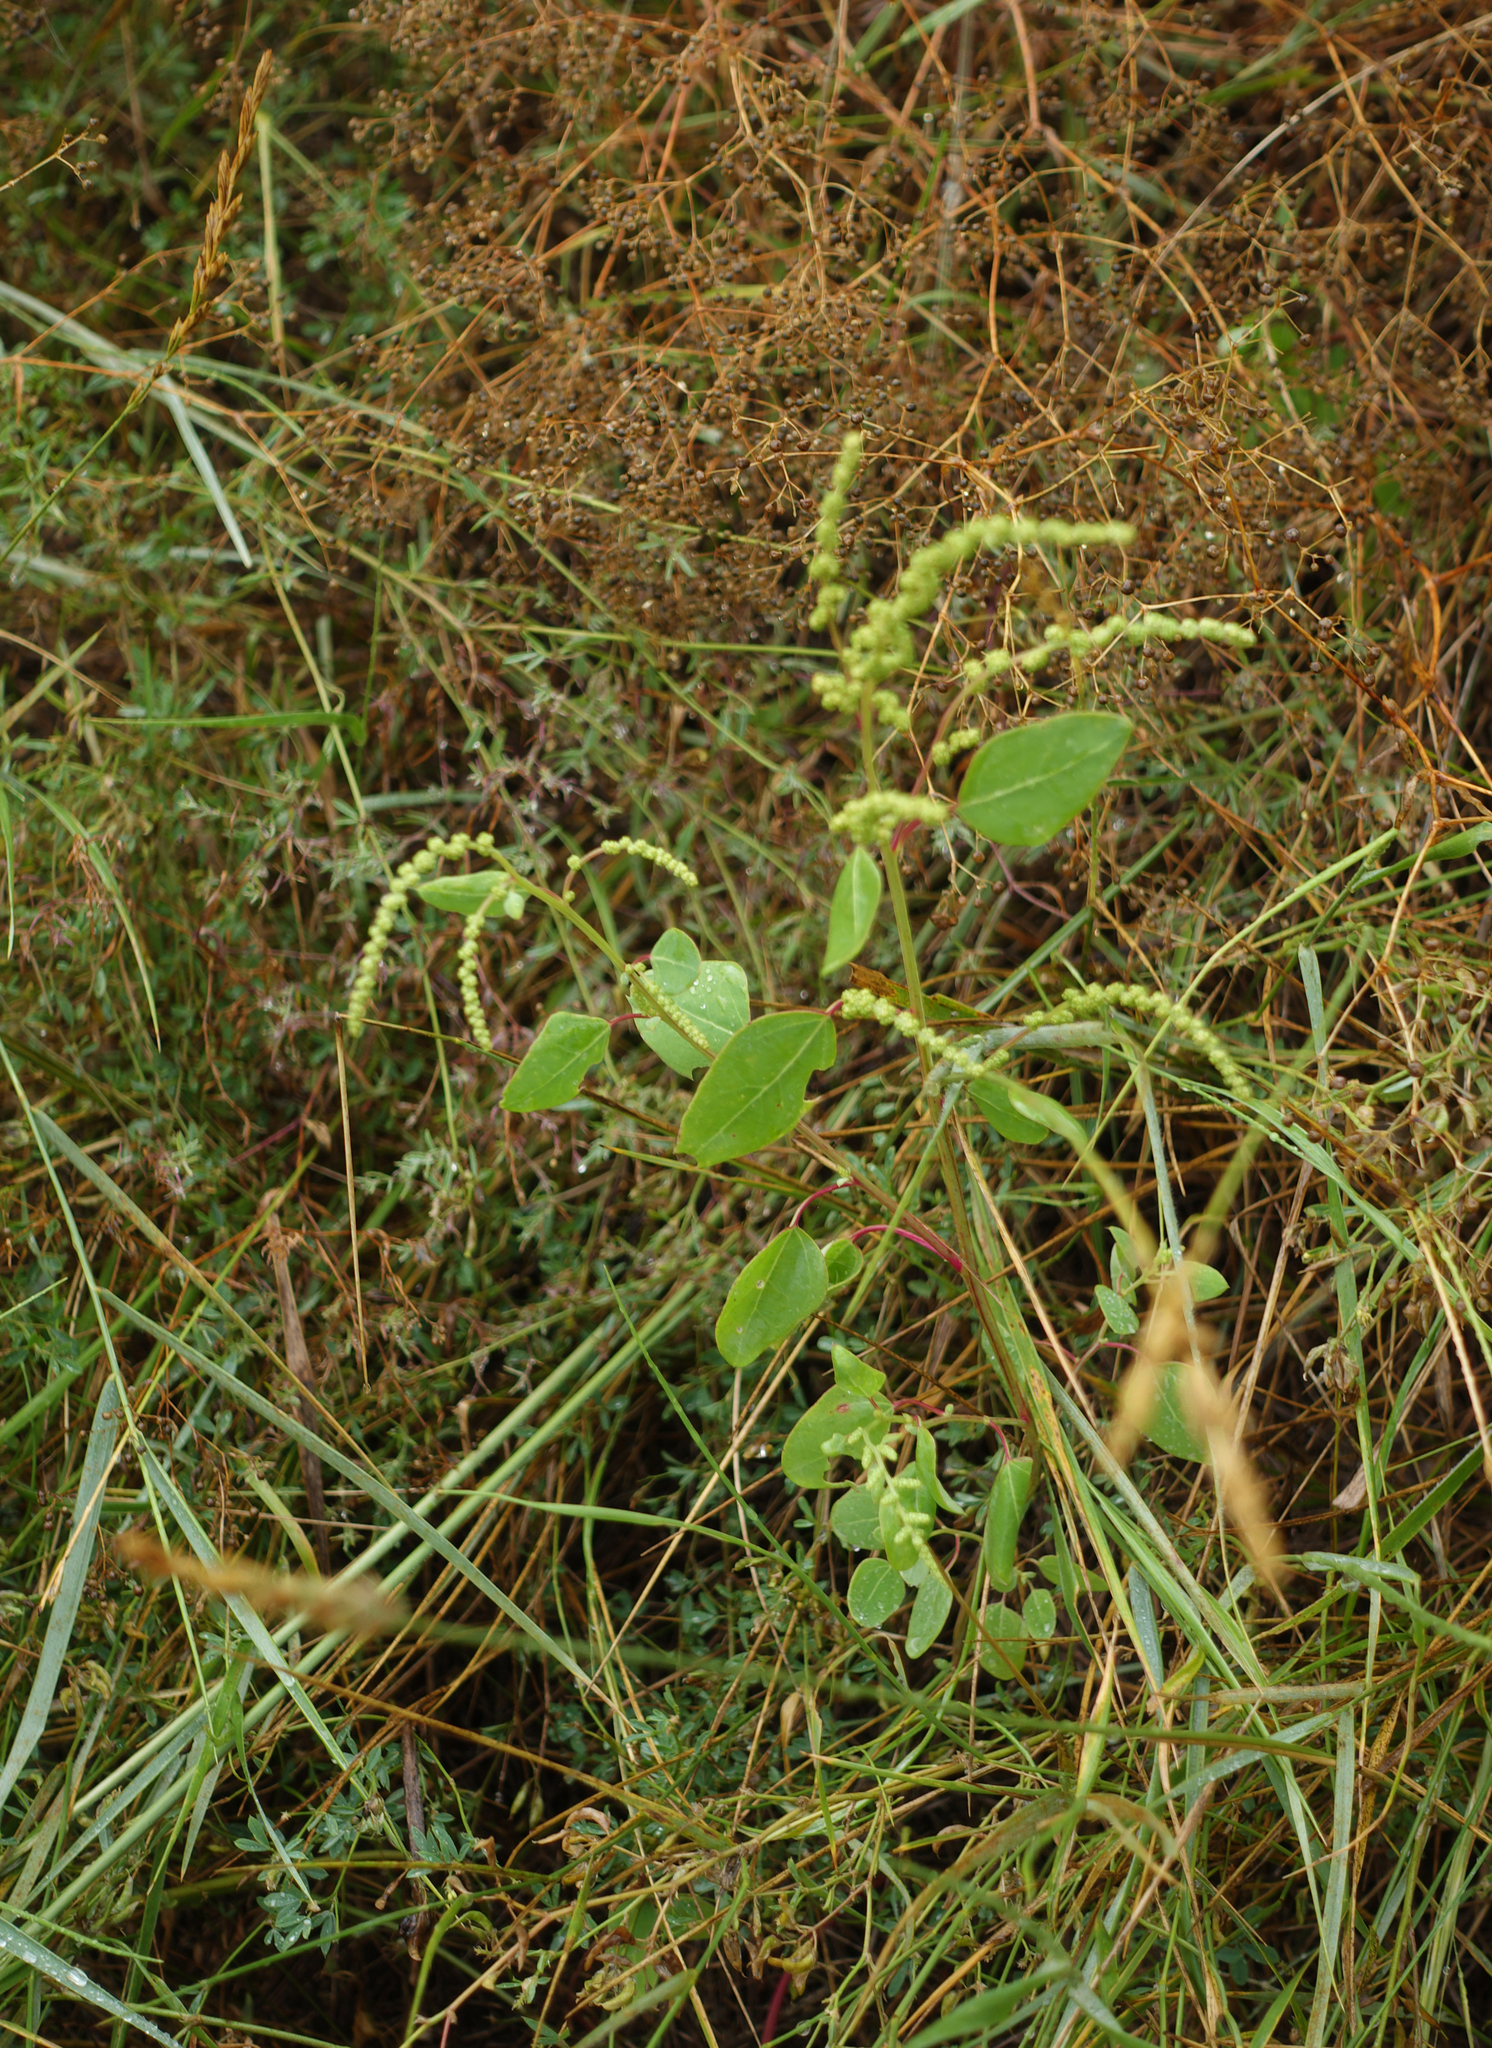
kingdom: Plantae
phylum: Tracheophyta
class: Magnoliopsida
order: Caryophyllales
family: Amaranthaceae
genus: Chenopodium
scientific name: Chenopodium acuminatum
